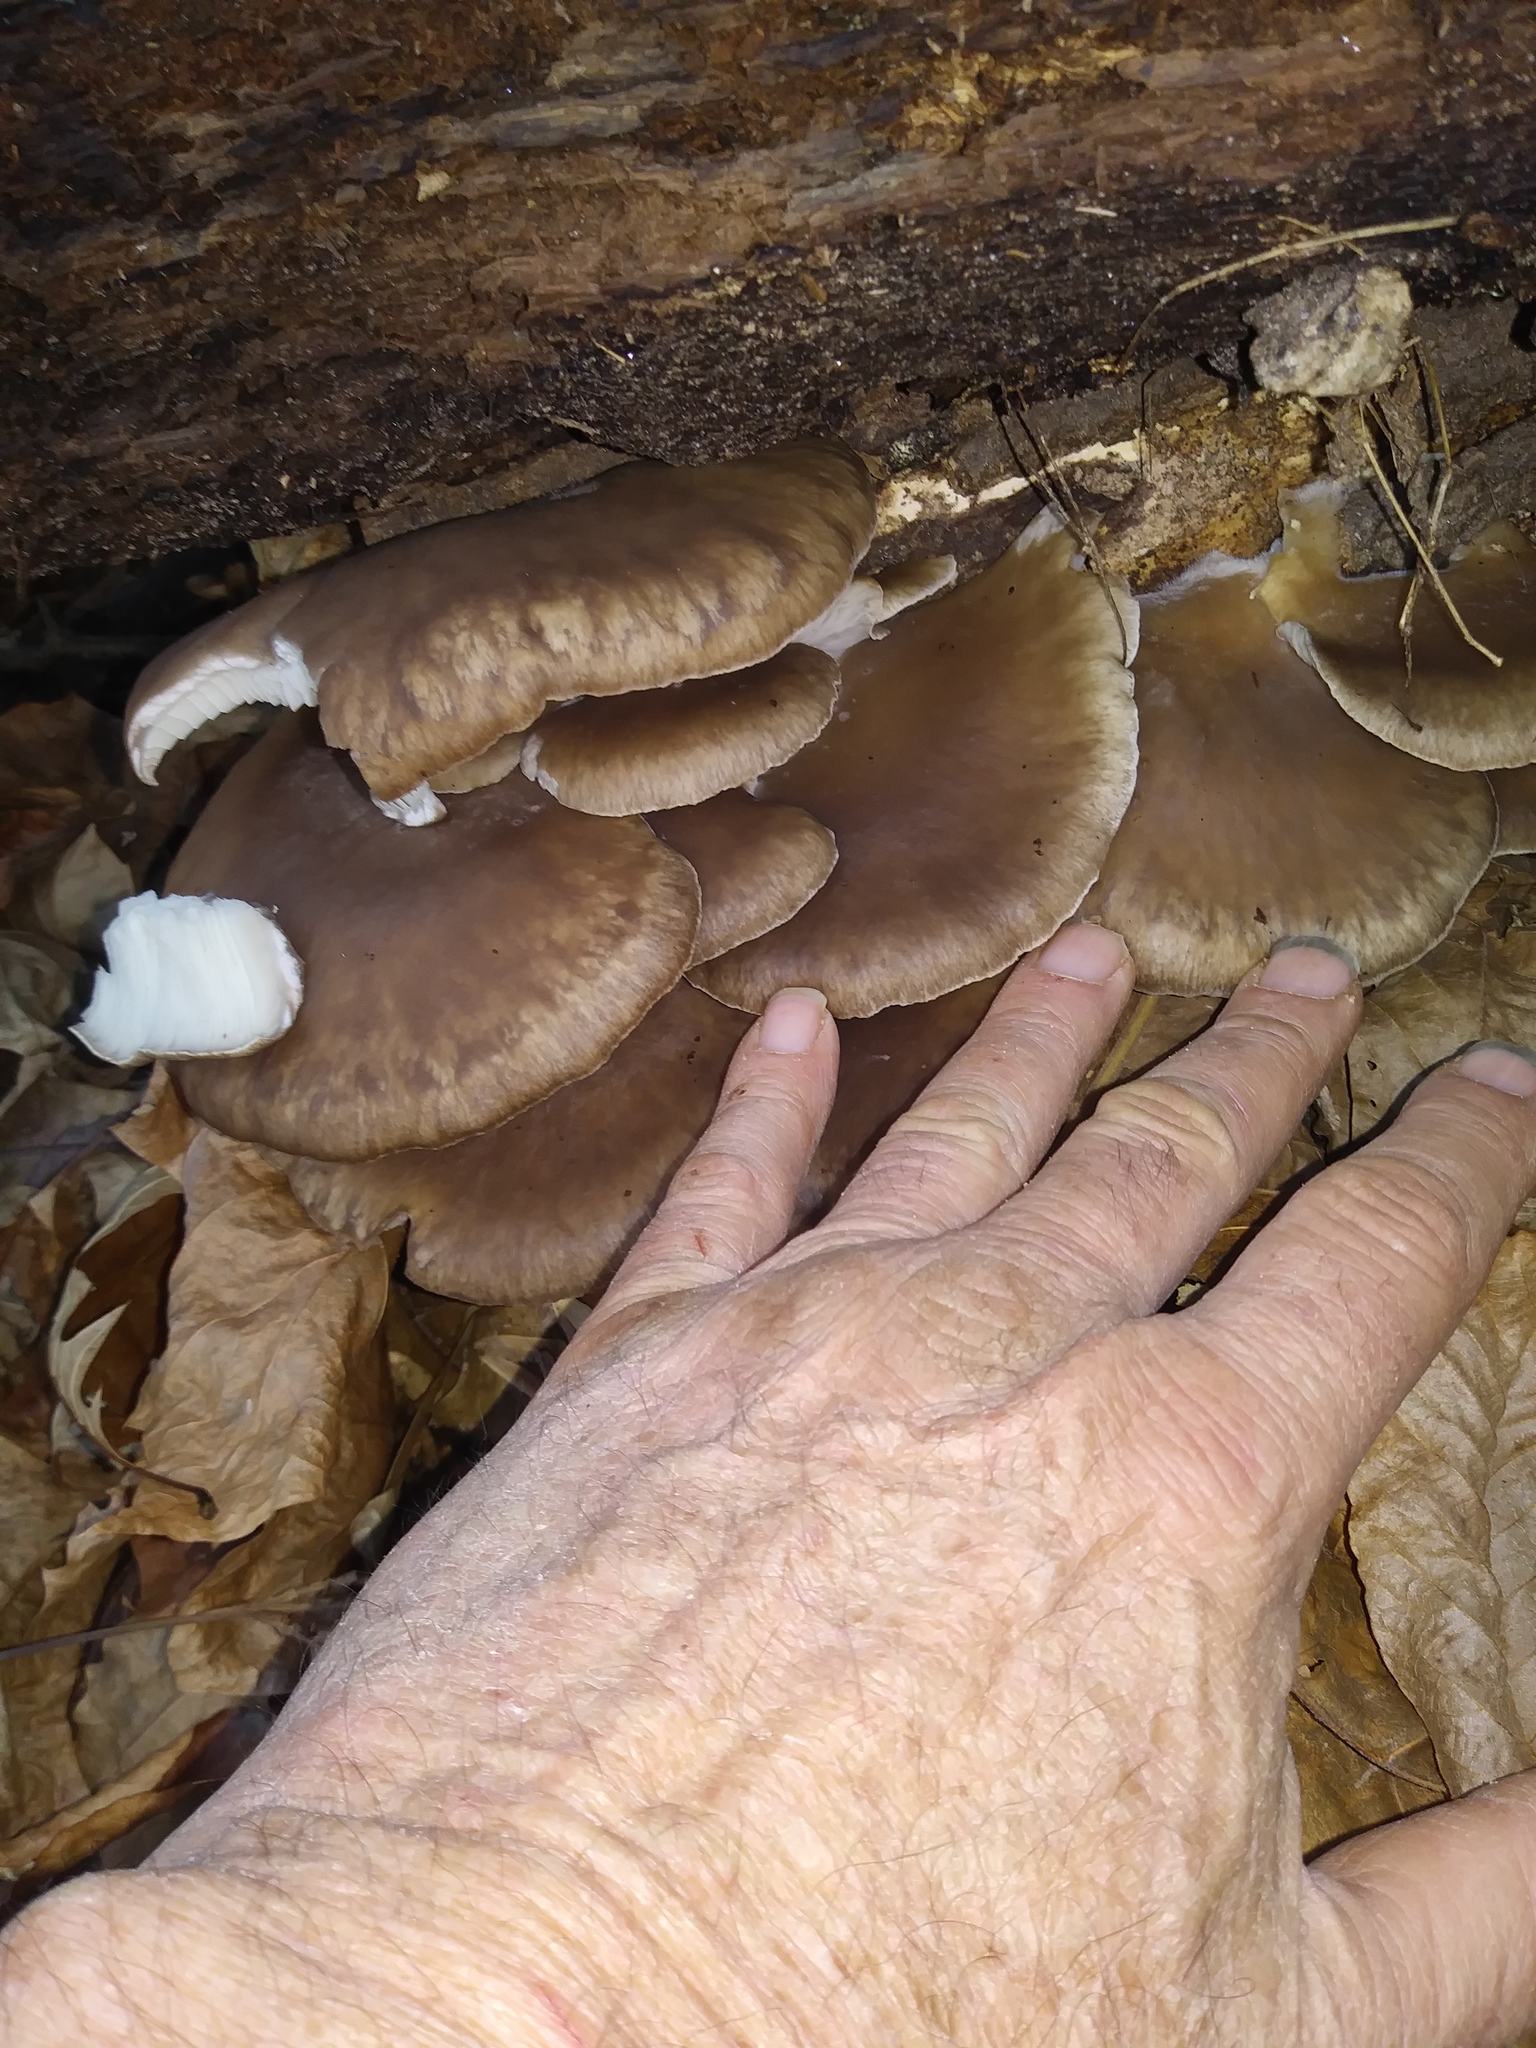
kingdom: Fungi
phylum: Basidiomycota
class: Agaricomycetes
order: Agaricales
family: Pleurotaceae
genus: Pleurotus
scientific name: Pleurotus ostreatus
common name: Oyster mushroom
